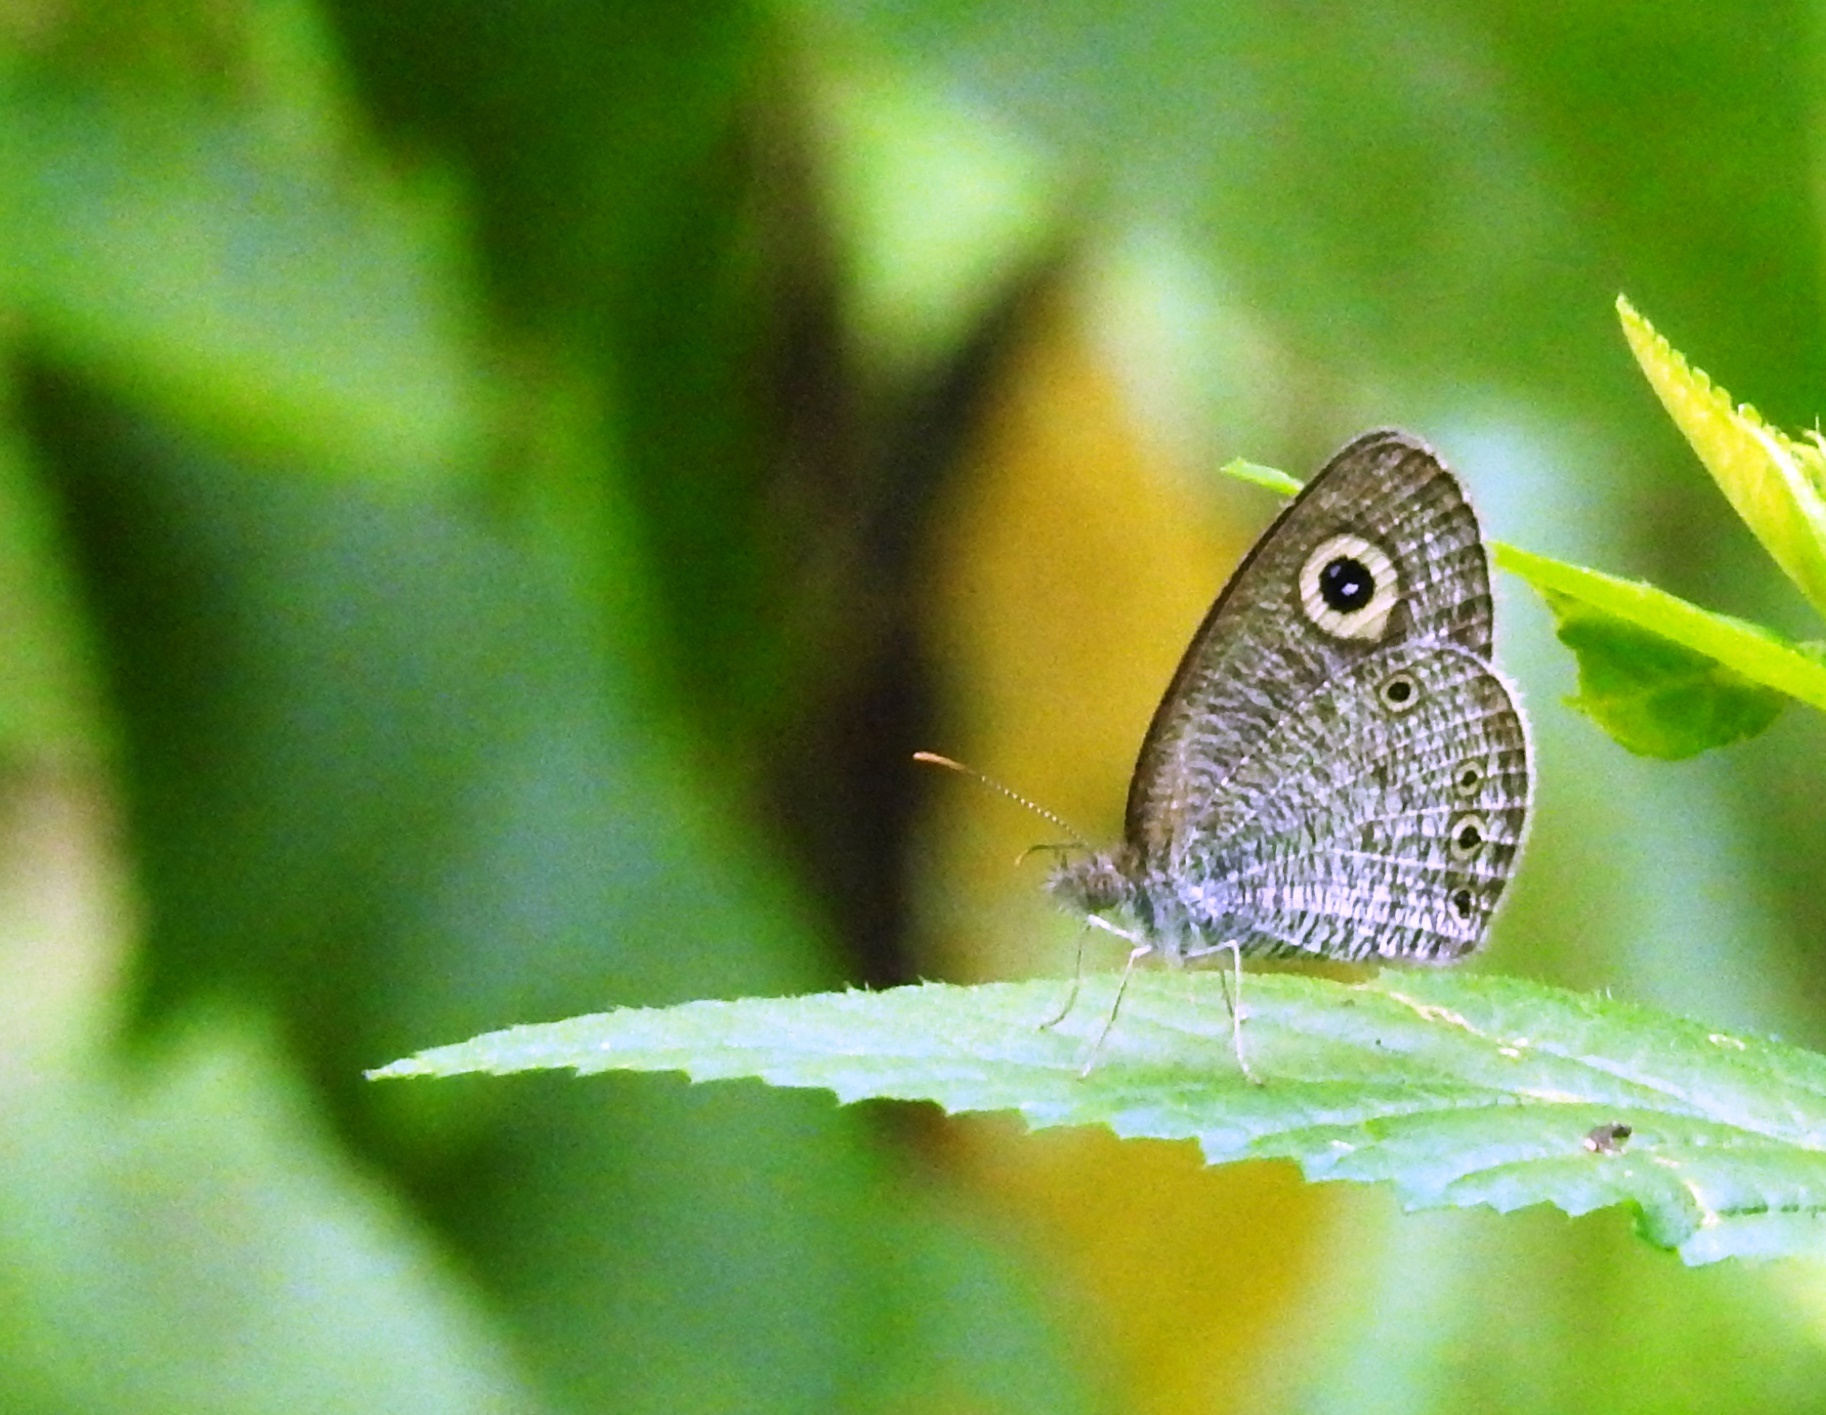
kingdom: Animalia
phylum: Arthropoda
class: Insecta
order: Lepidoptera
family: Nymphalidae
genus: Ypthima
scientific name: Ypthima huebneri
